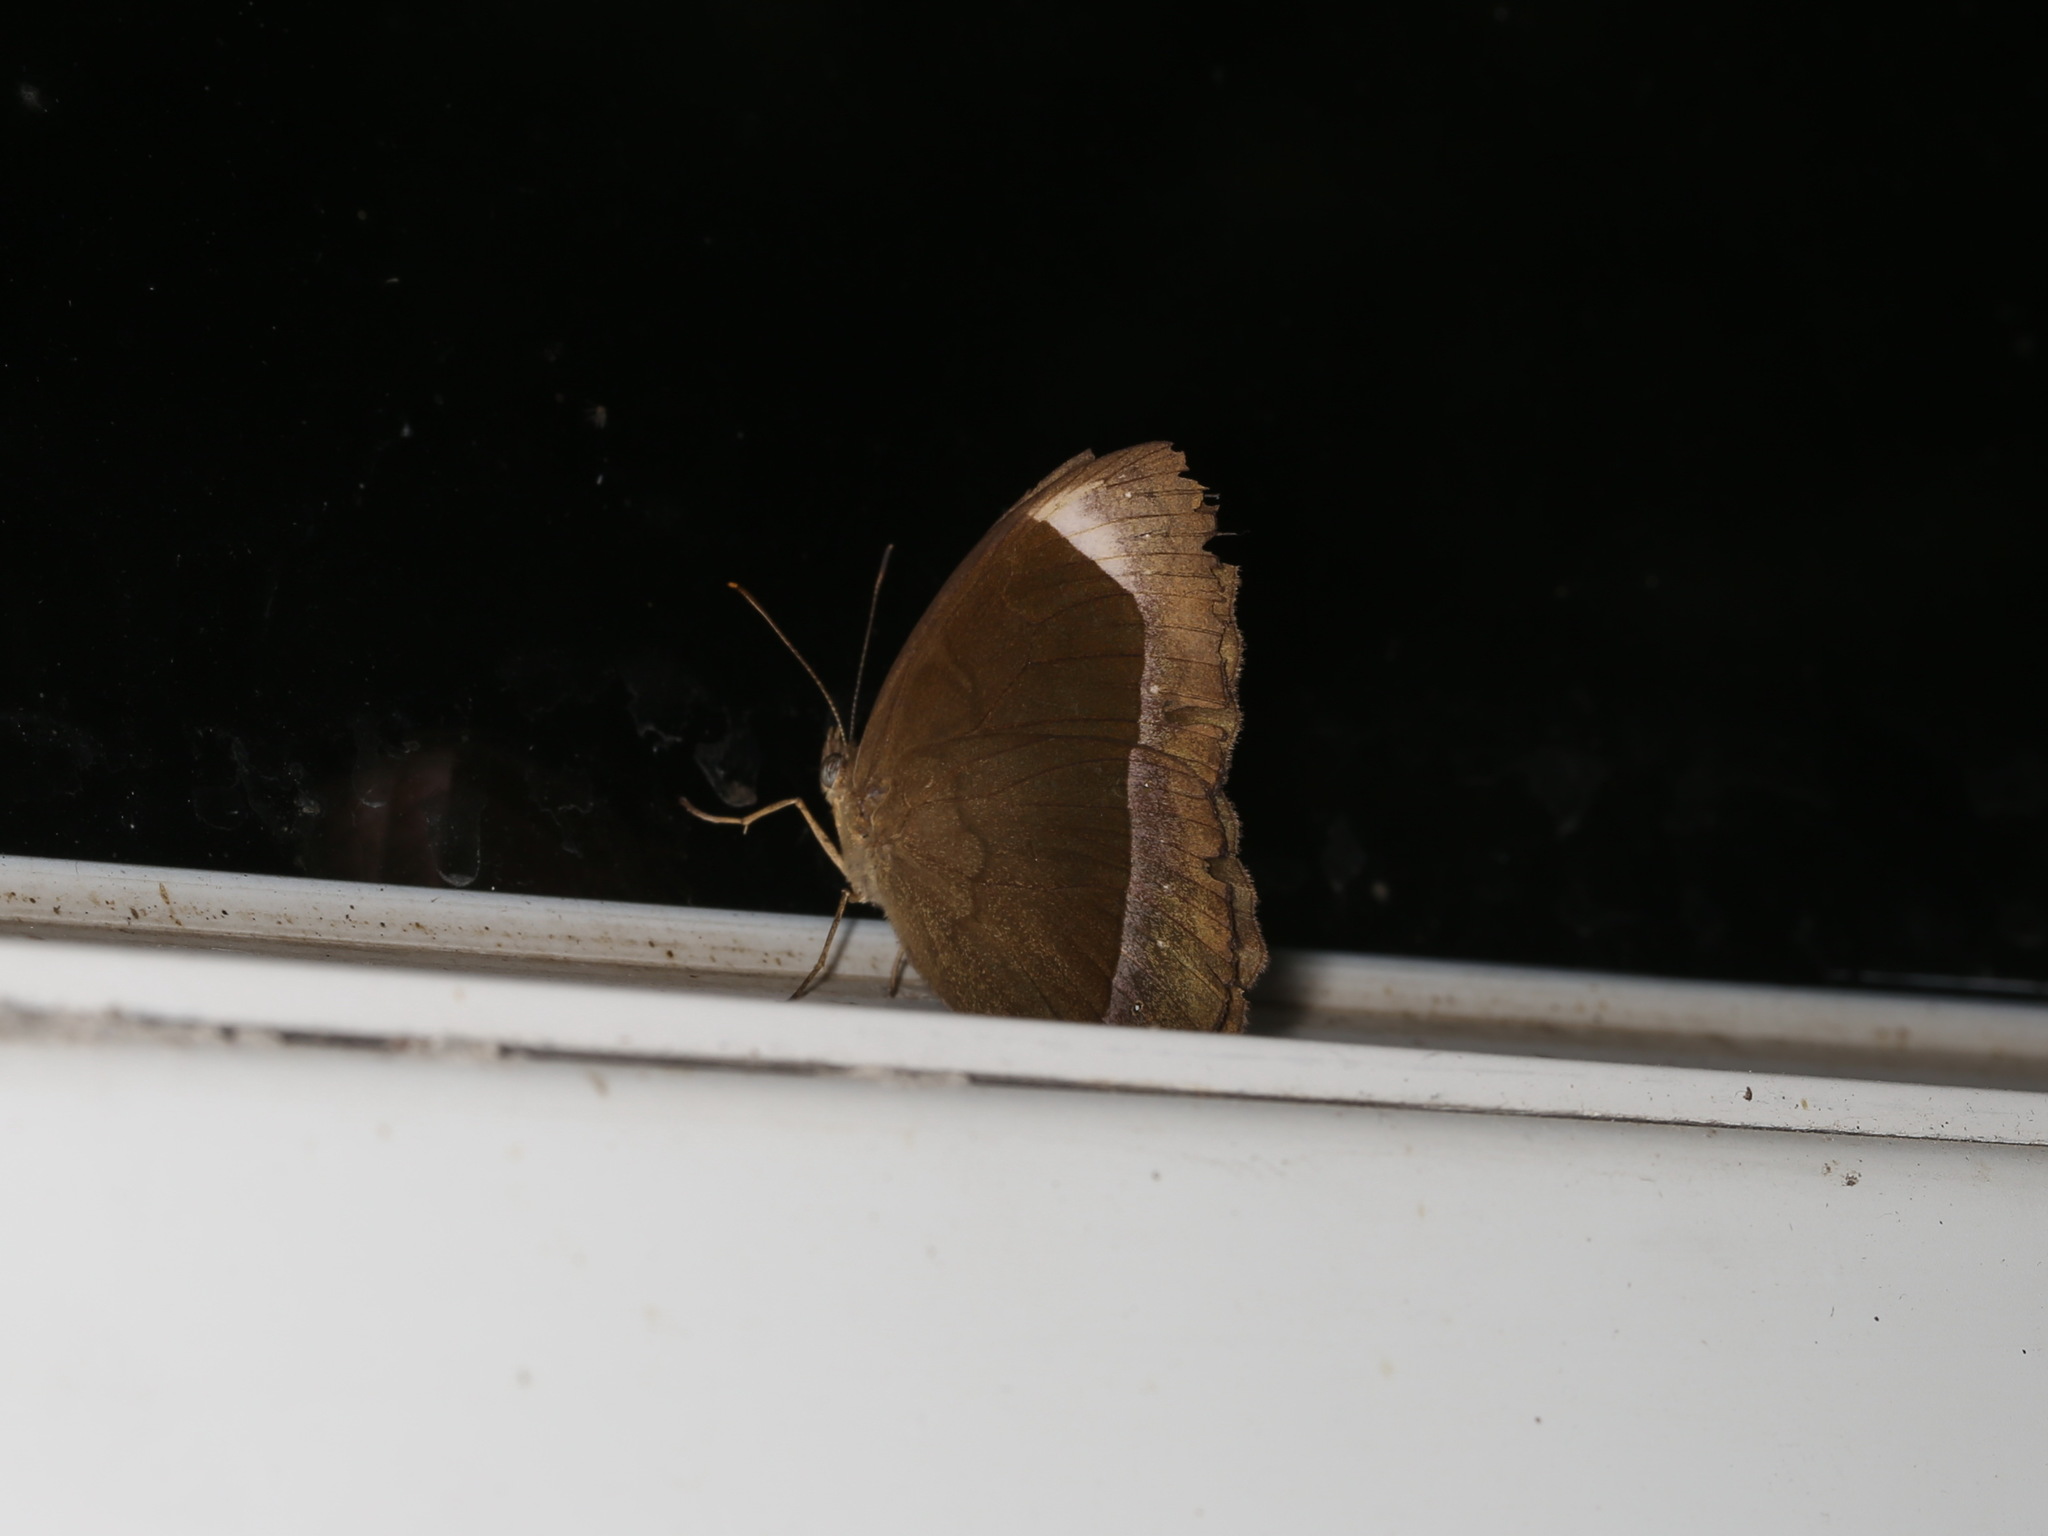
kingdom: Animalia
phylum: Arthropoda
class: Insecta
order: Lepidoptera
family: Nymphalidae
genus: Mycalesis
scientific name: Mycalesis anaxias
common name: White-bar bushbrown
